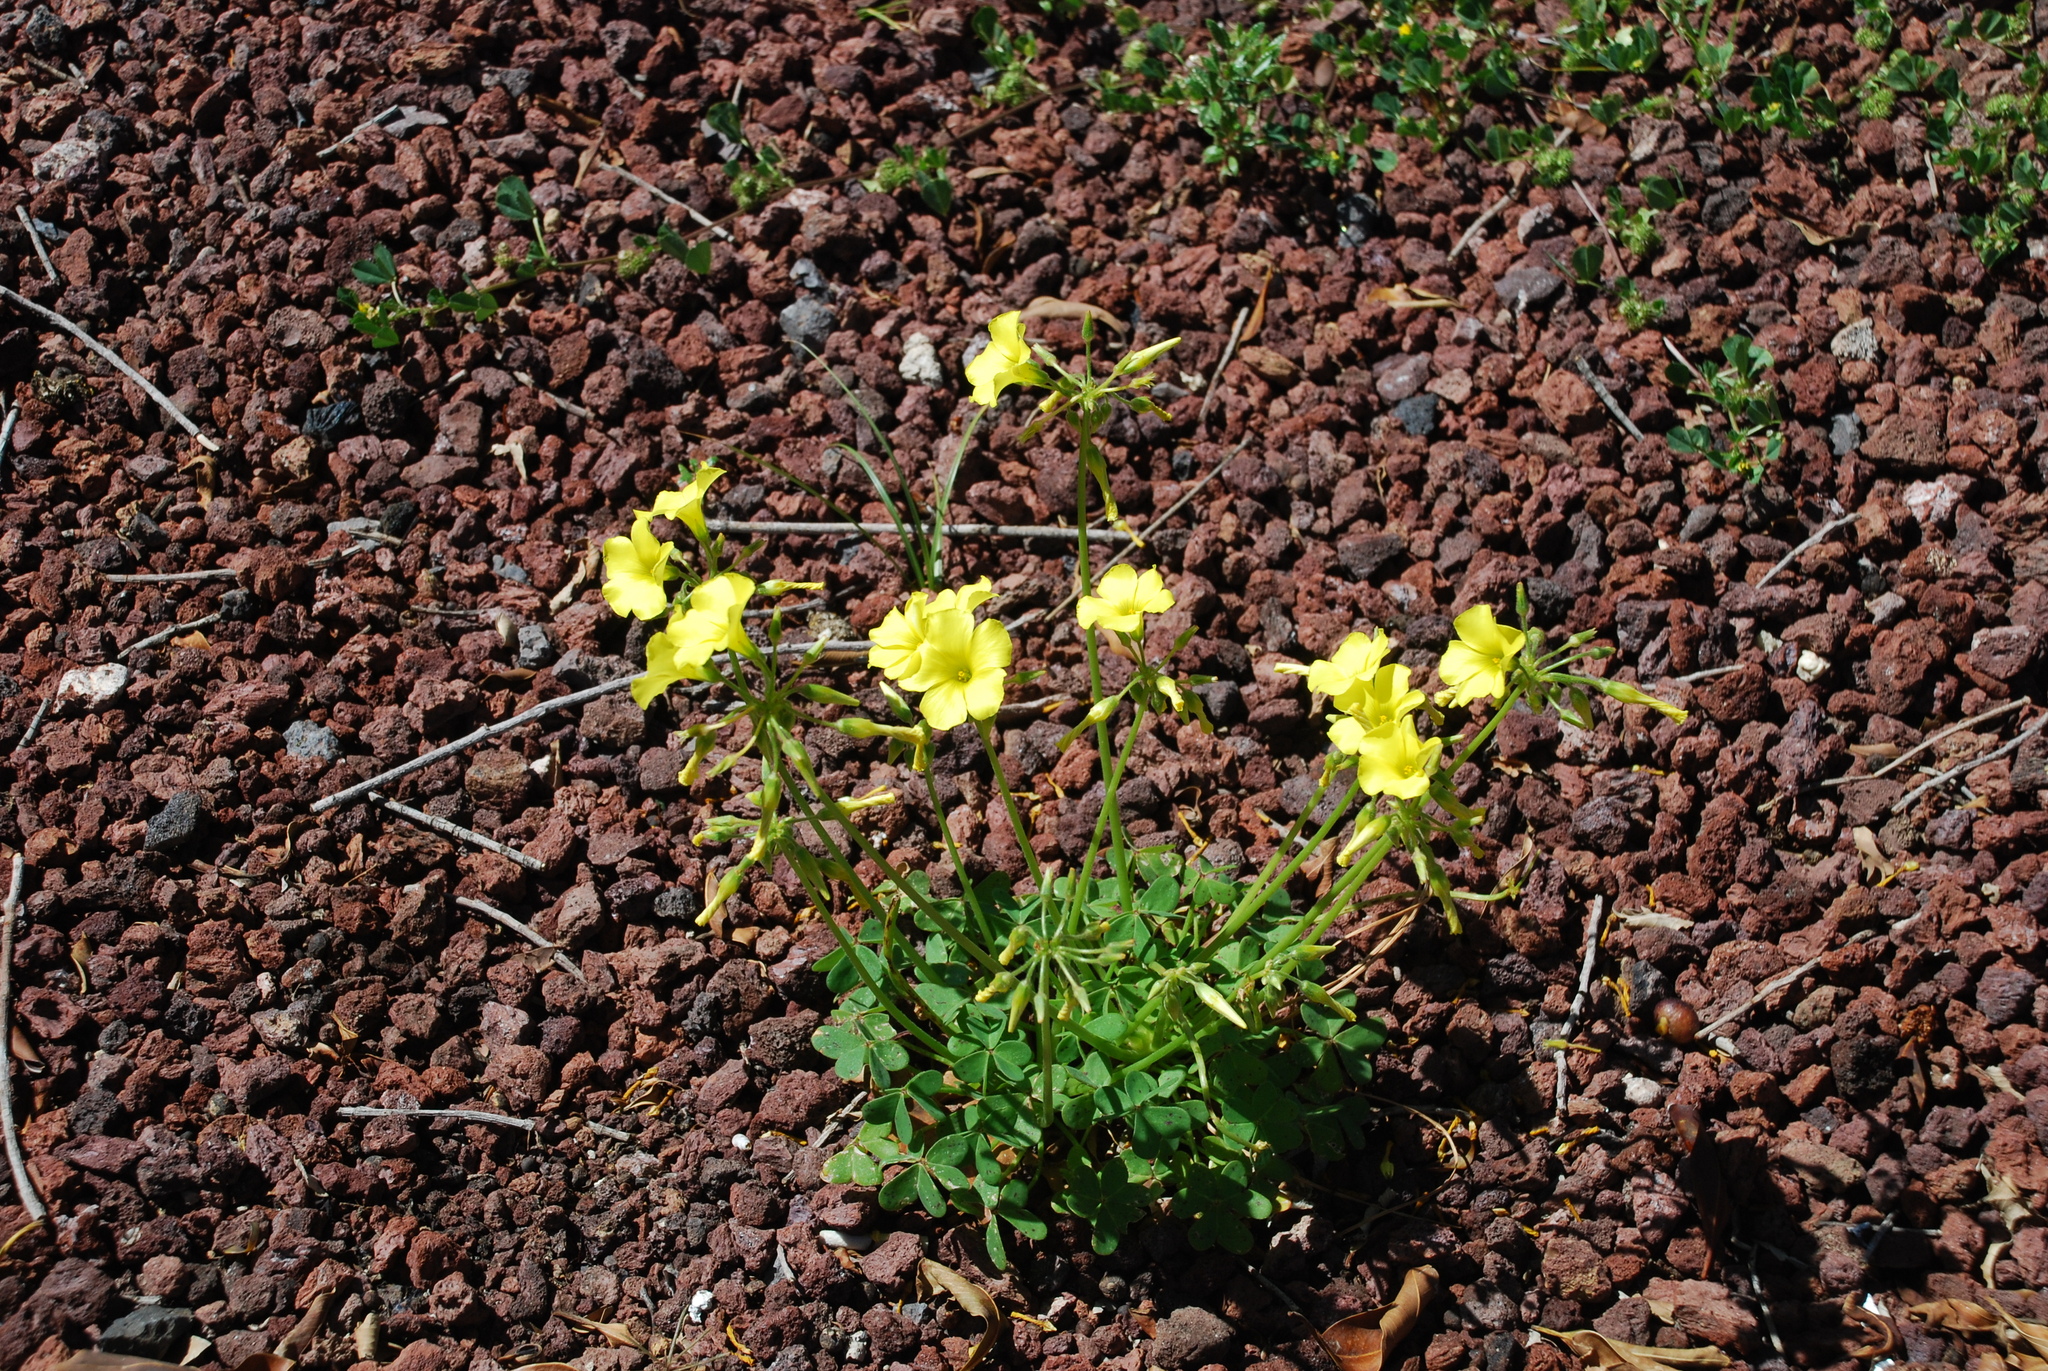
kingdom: Plantae
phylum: Tracheophyta
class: Magnoliopsida
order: Oxalidales
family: Oxalidaceae
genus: Oxalis
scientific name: Oxalis pes-caprae
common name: Bermuda-buttercup
